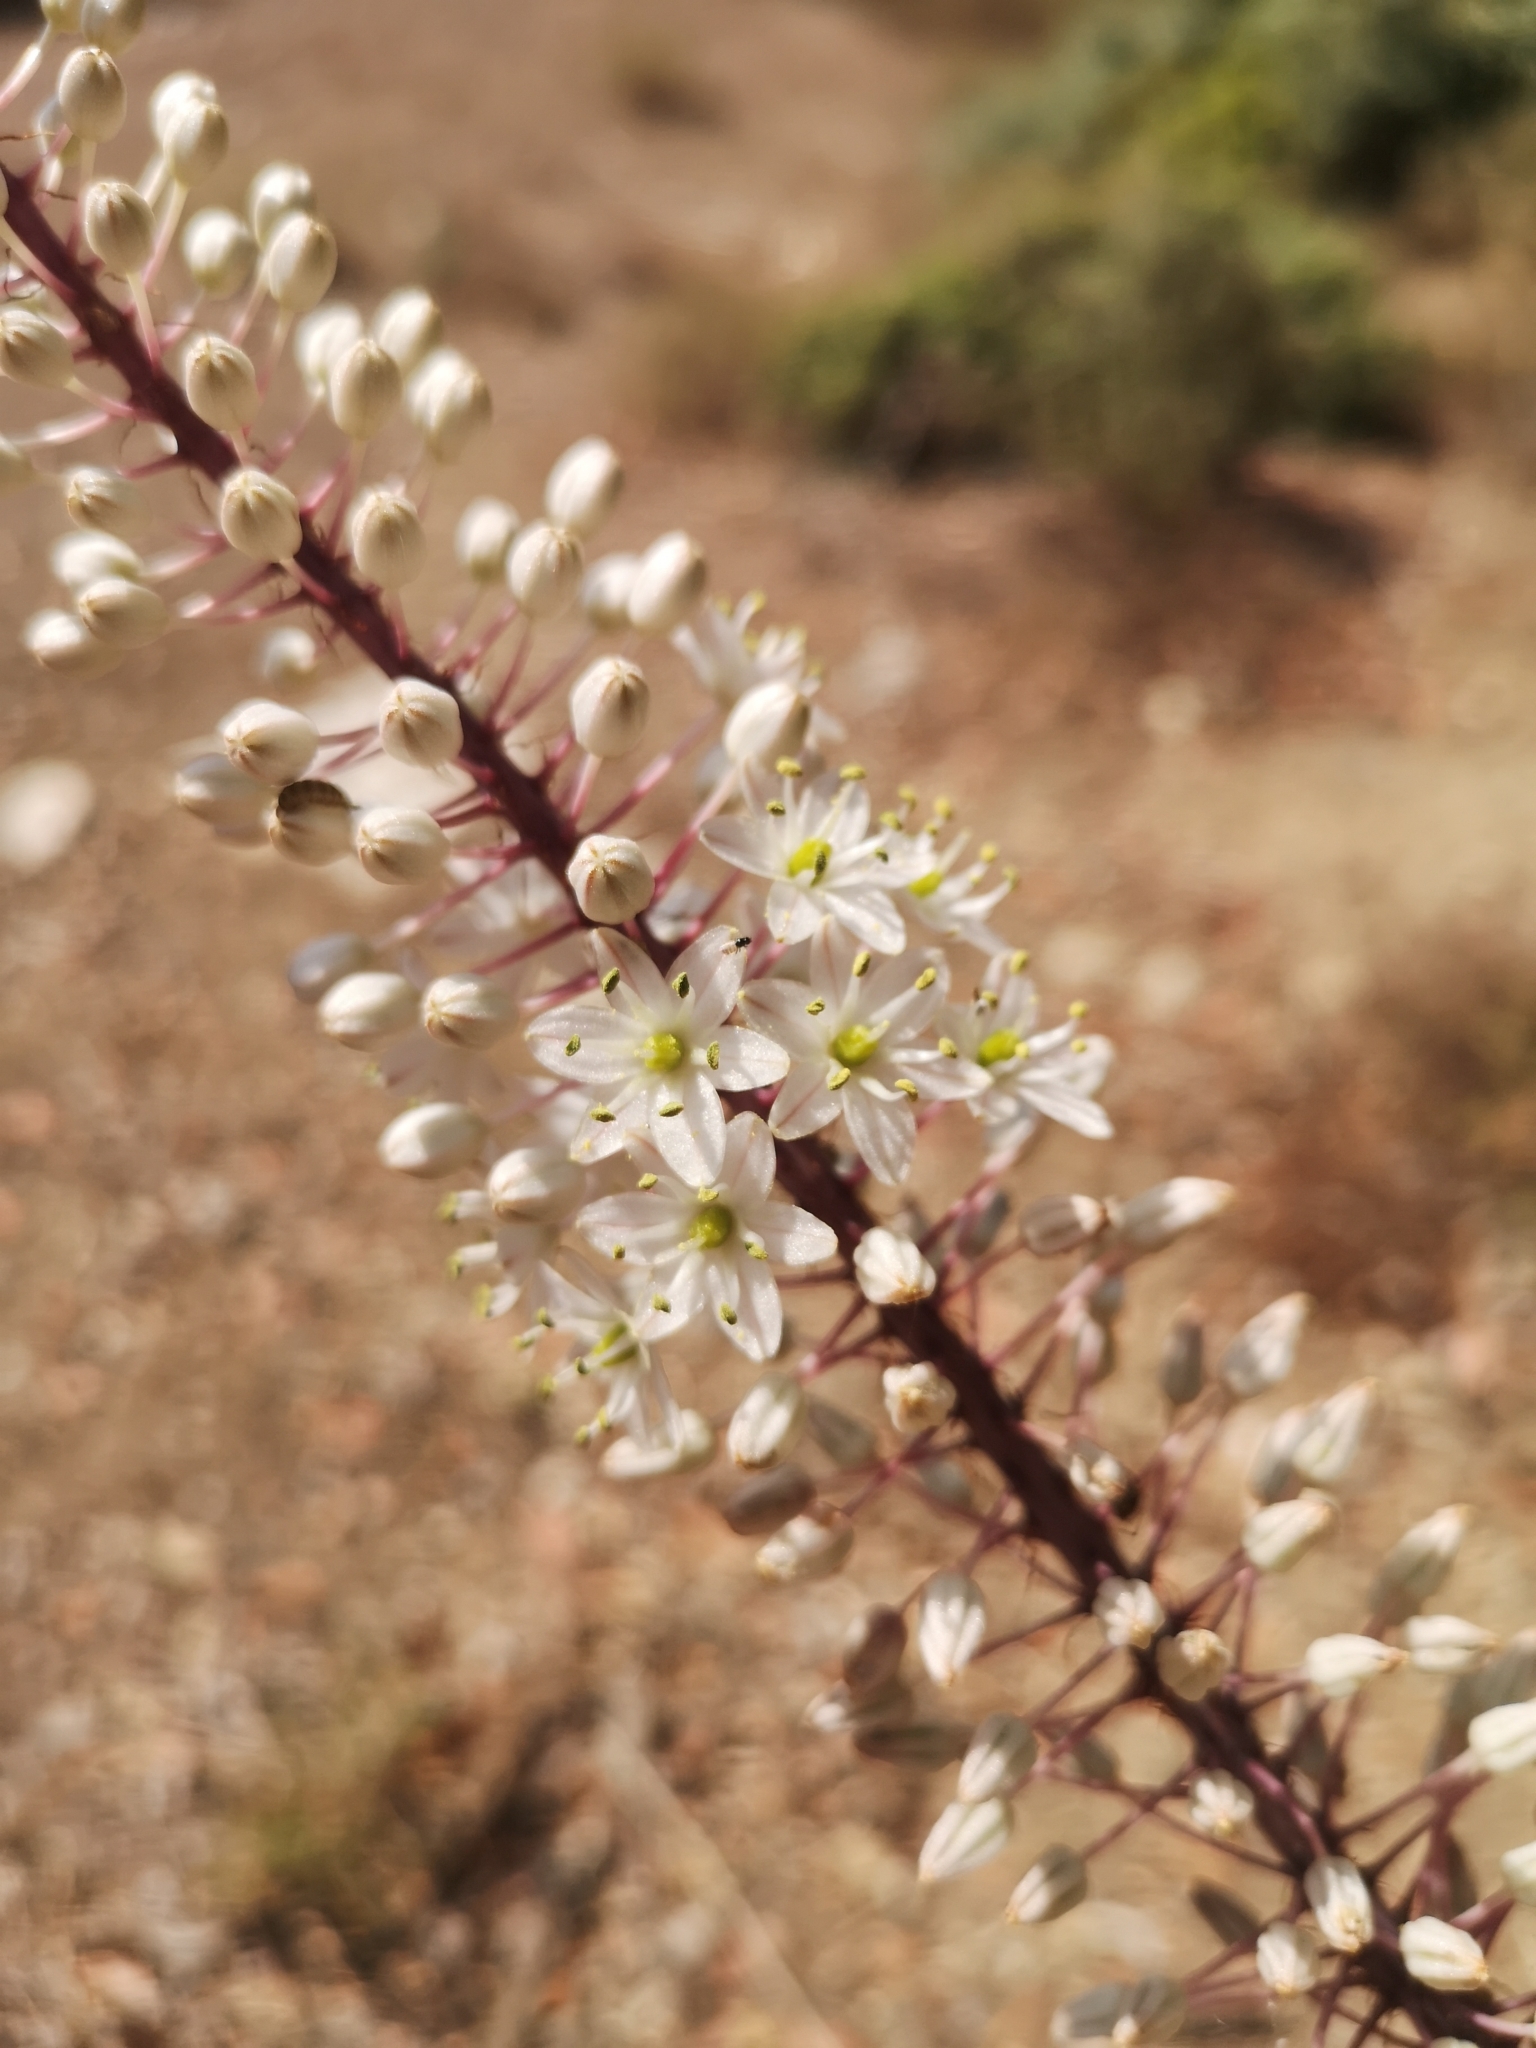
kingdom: Plantae
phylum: Tracheophyta
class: Liliopsida
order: Asparagales
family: Asparagaceae
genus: Drimia
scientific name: Drimia numidica
